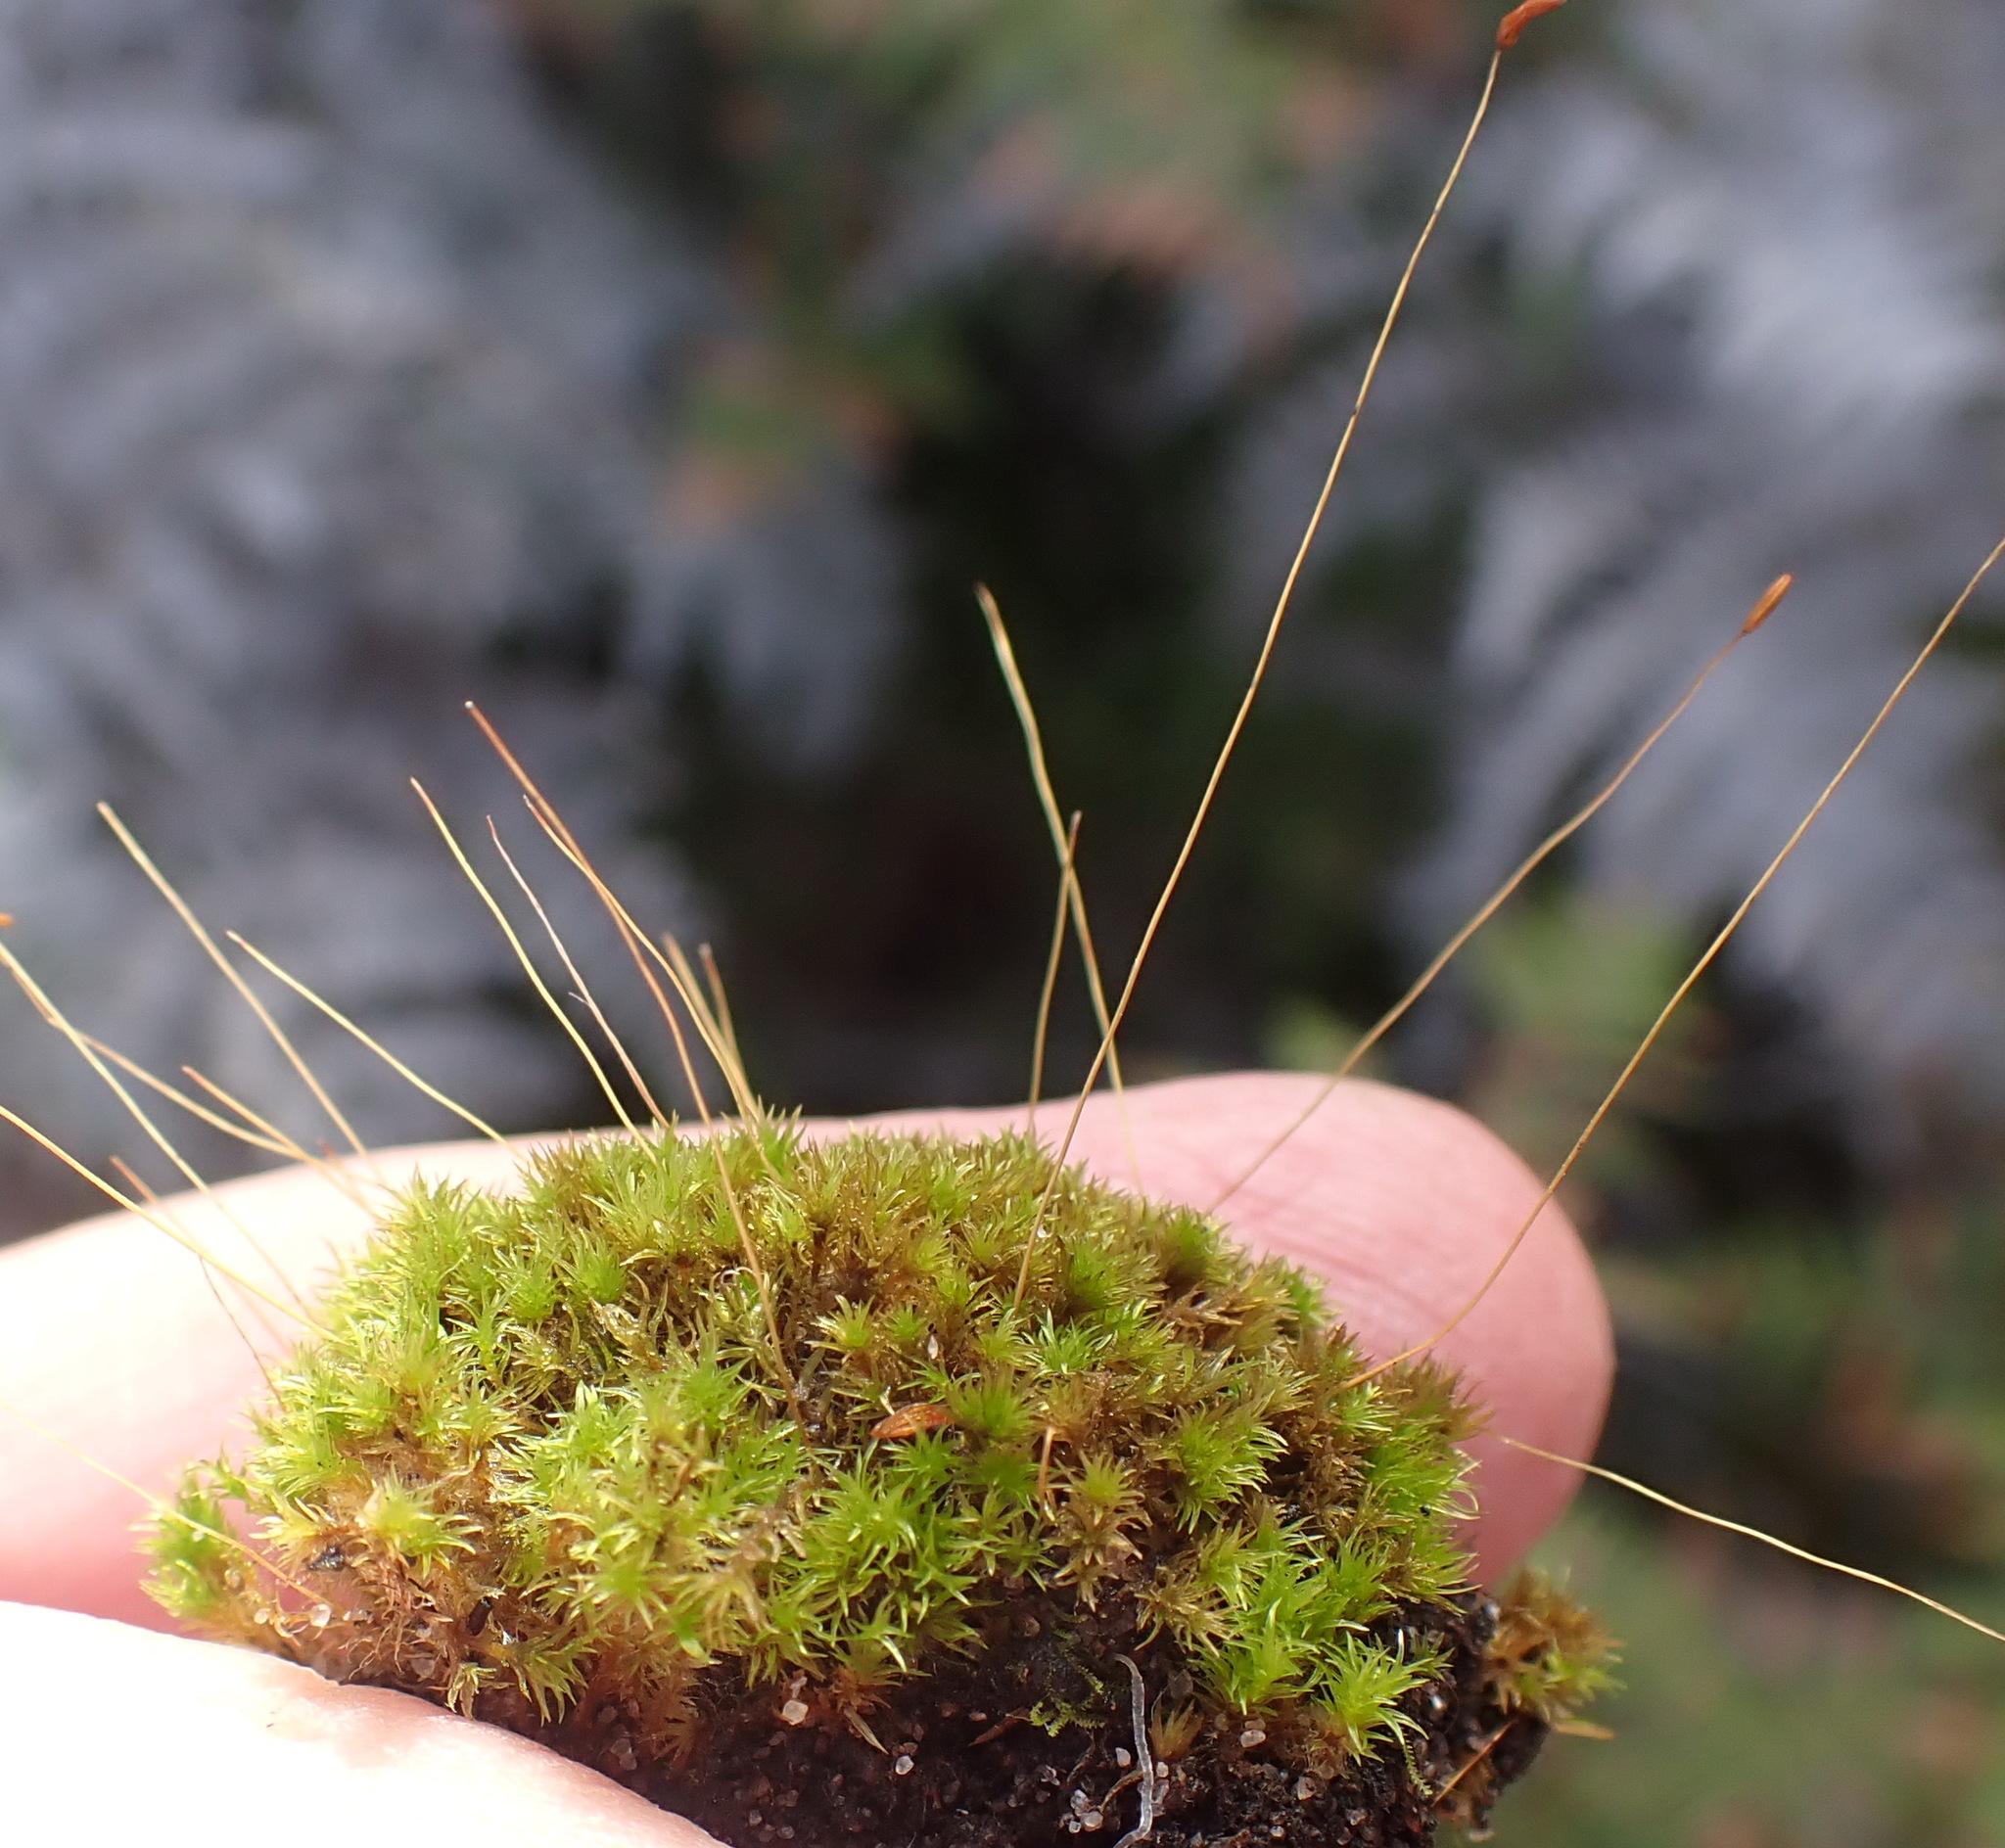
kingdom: Plantae
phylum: Bryophyta
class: Bryopsida
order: Dicranales
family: Ditrichaceae
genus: Ceratodon
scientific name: Ceratodon purpureus
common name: Redshank
